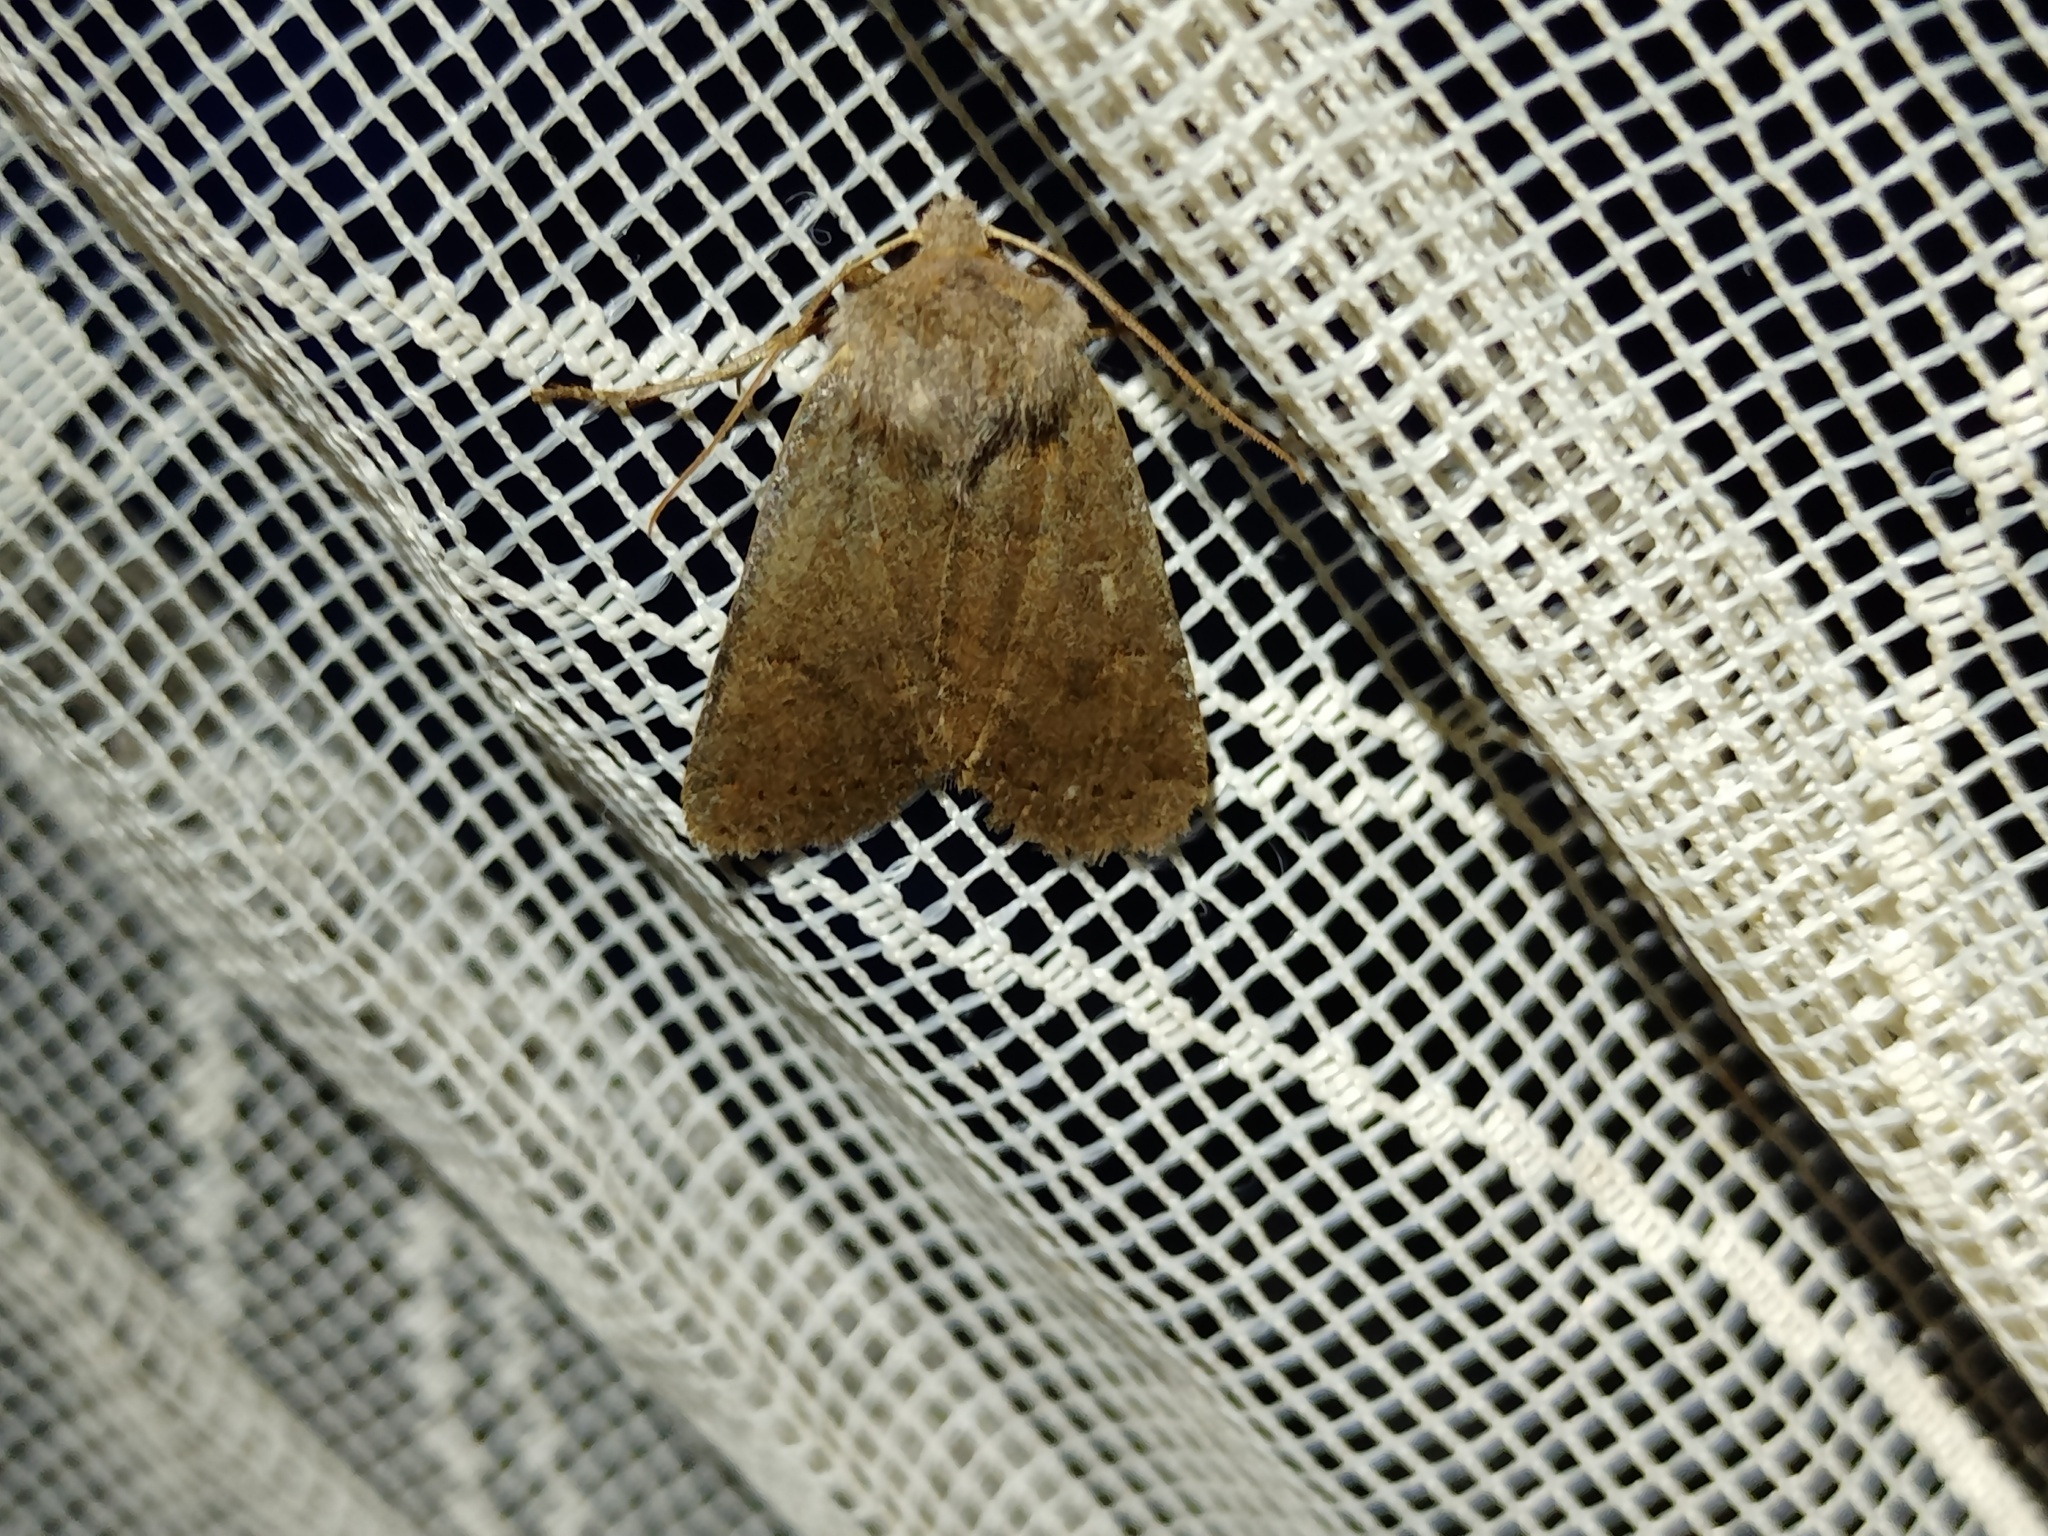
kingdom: Animalia
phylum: Arthropoda
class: Insecta
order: Lepidoptera
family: Noctuidae
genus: Conistra
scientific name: Conistra vaccinii
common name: Chestnut
